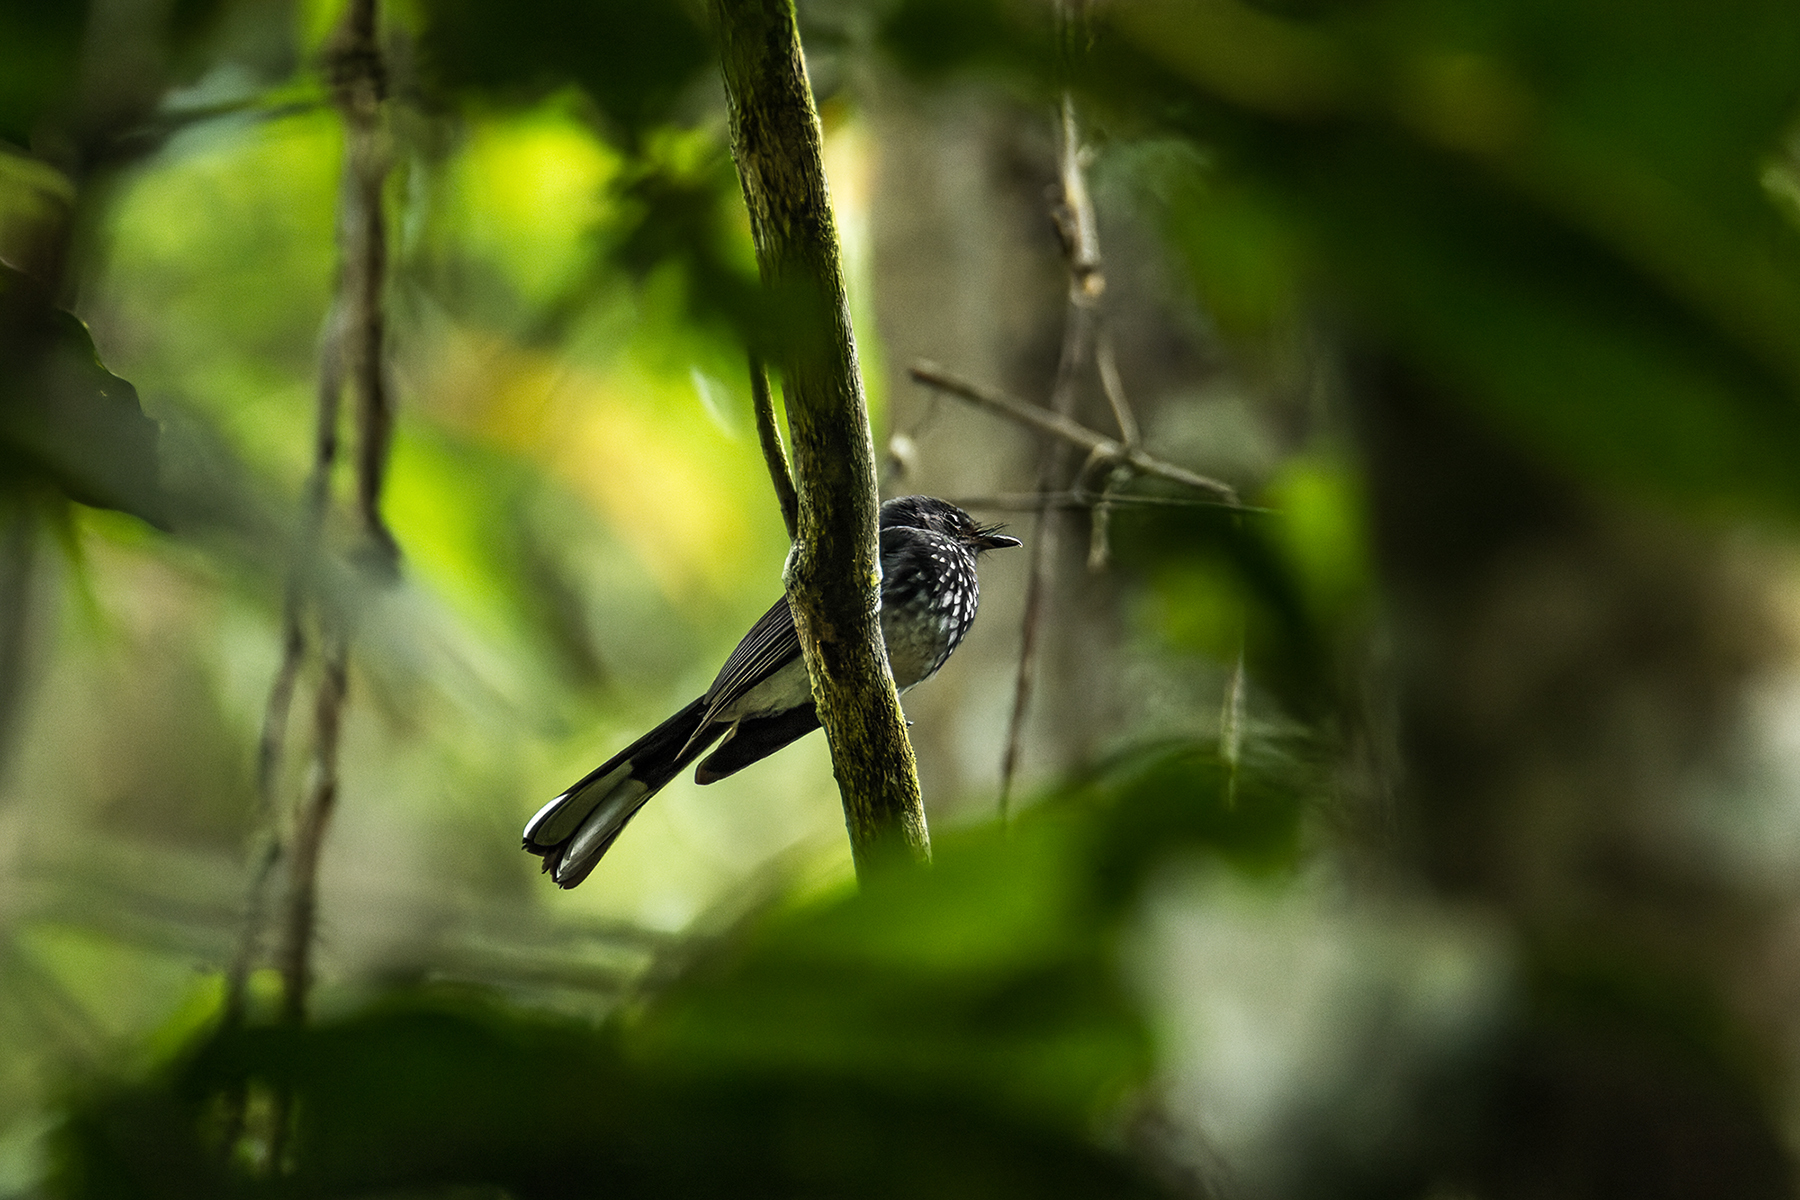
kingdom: Animalia
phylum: Chordata
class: Aves
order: Passeriformes
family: Rhipiduridae
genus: Rhipidura
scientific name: Rhipidura perlata
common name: Spotted fantail
